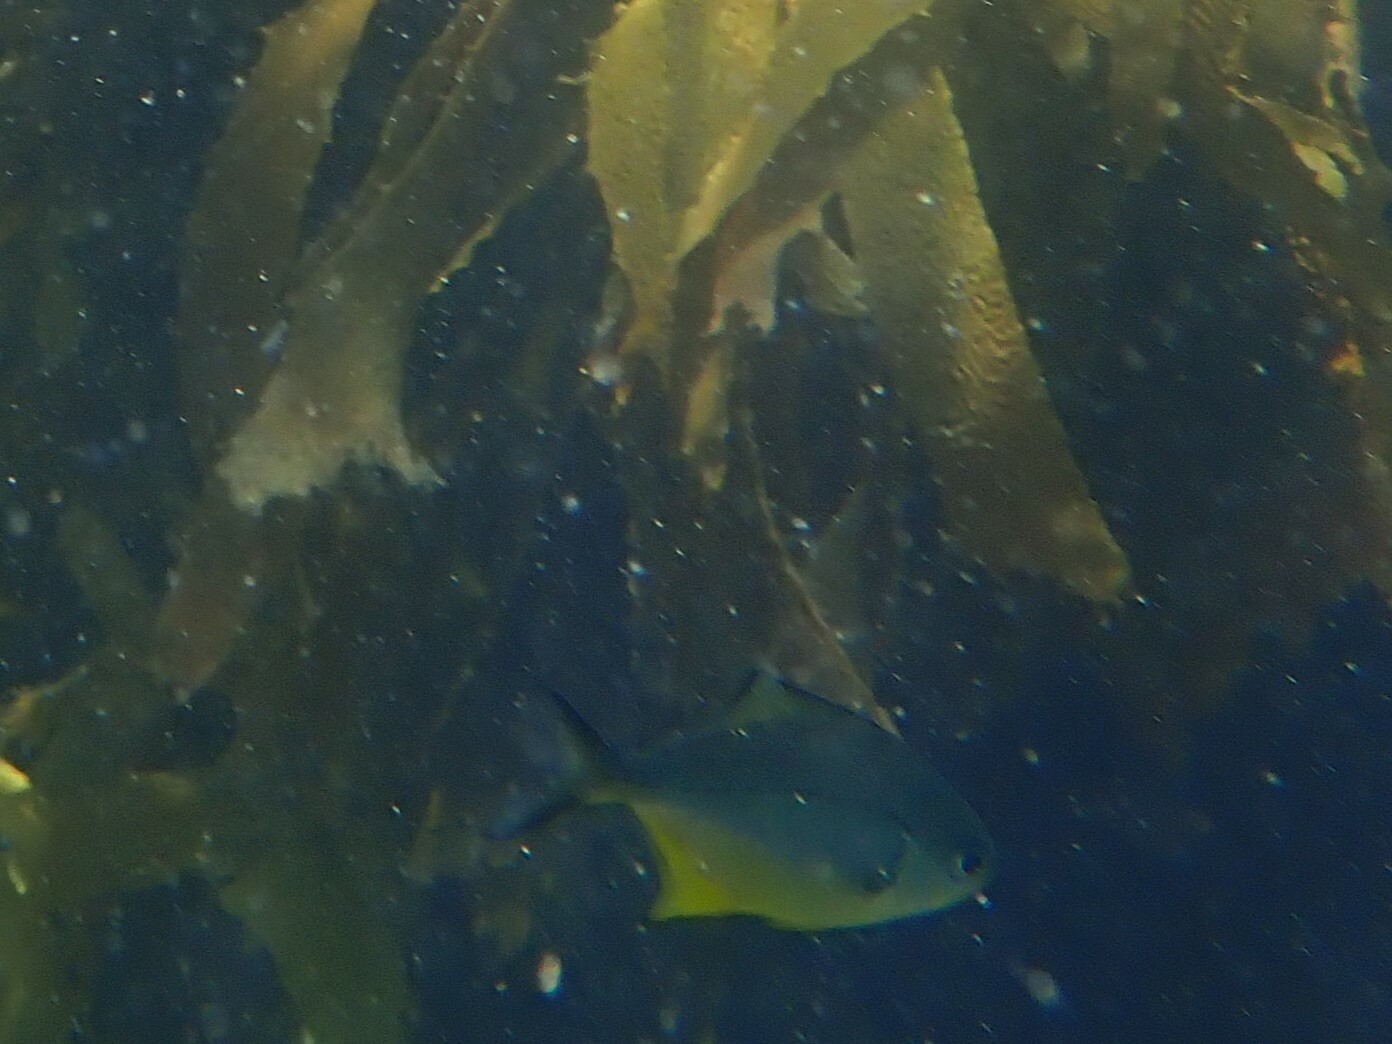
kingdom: Animalia
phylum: Chordata
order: Perciformes
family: Kyphosidae
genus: Scorpis
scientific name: Scorpis violacea
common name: Blue maomao
